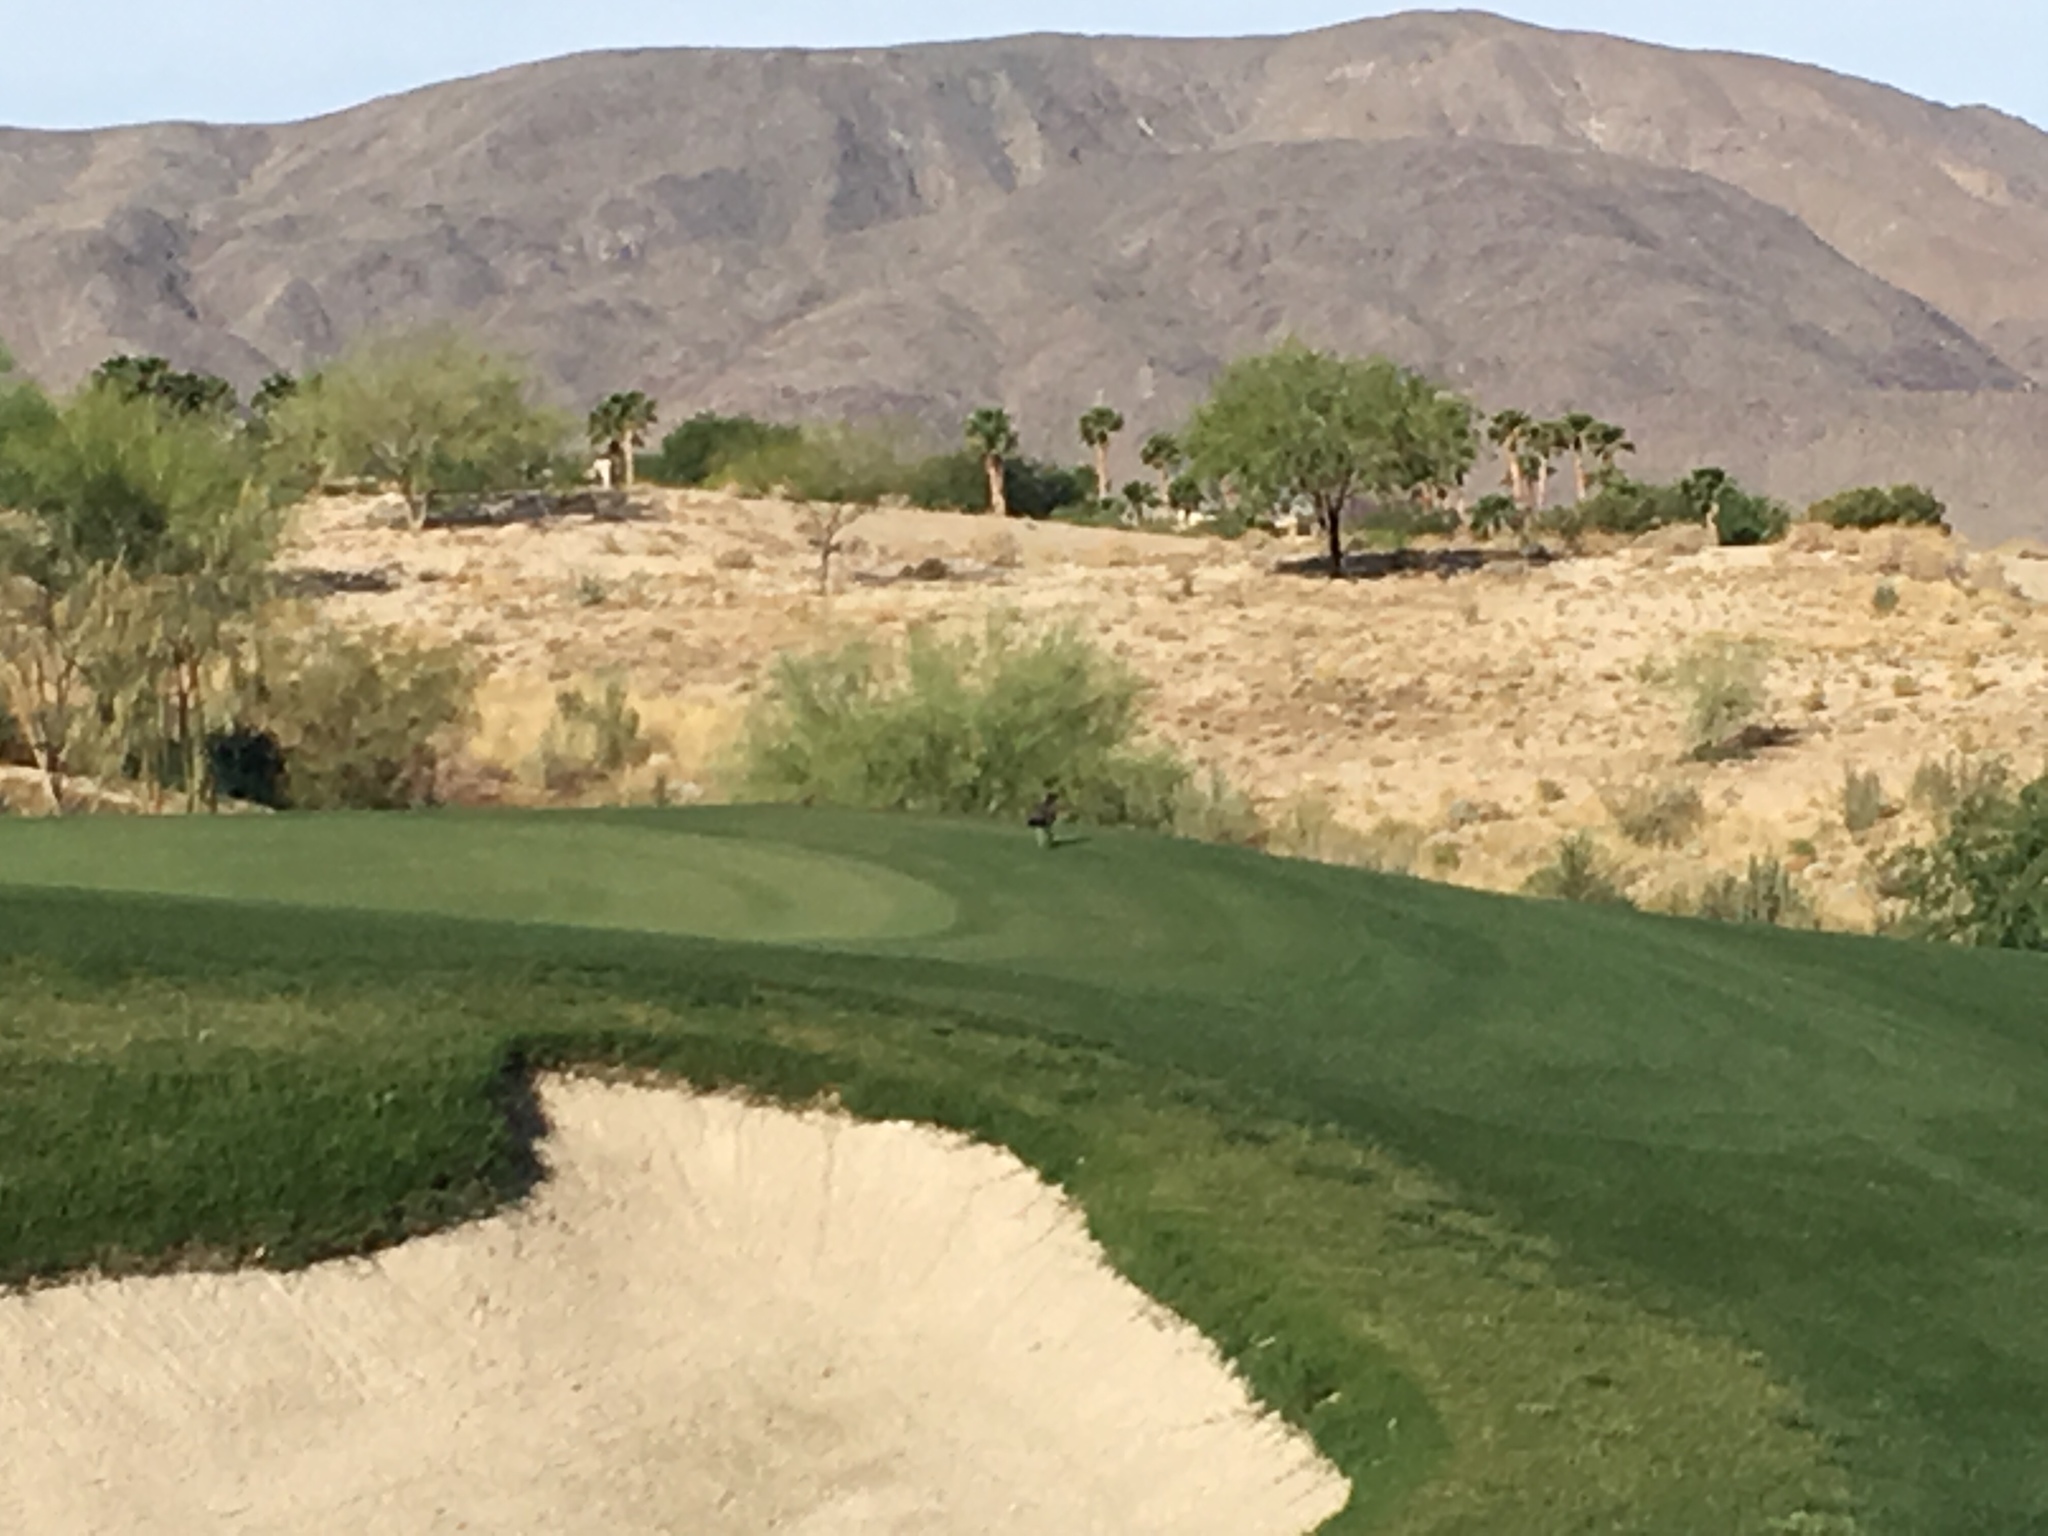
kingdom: Animalia
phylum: Chordata
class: Aves
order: Cuculiformes
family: Cuculidae
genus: Geococcyx
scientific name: Geococcyx californianus
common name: Greater roadrunner
